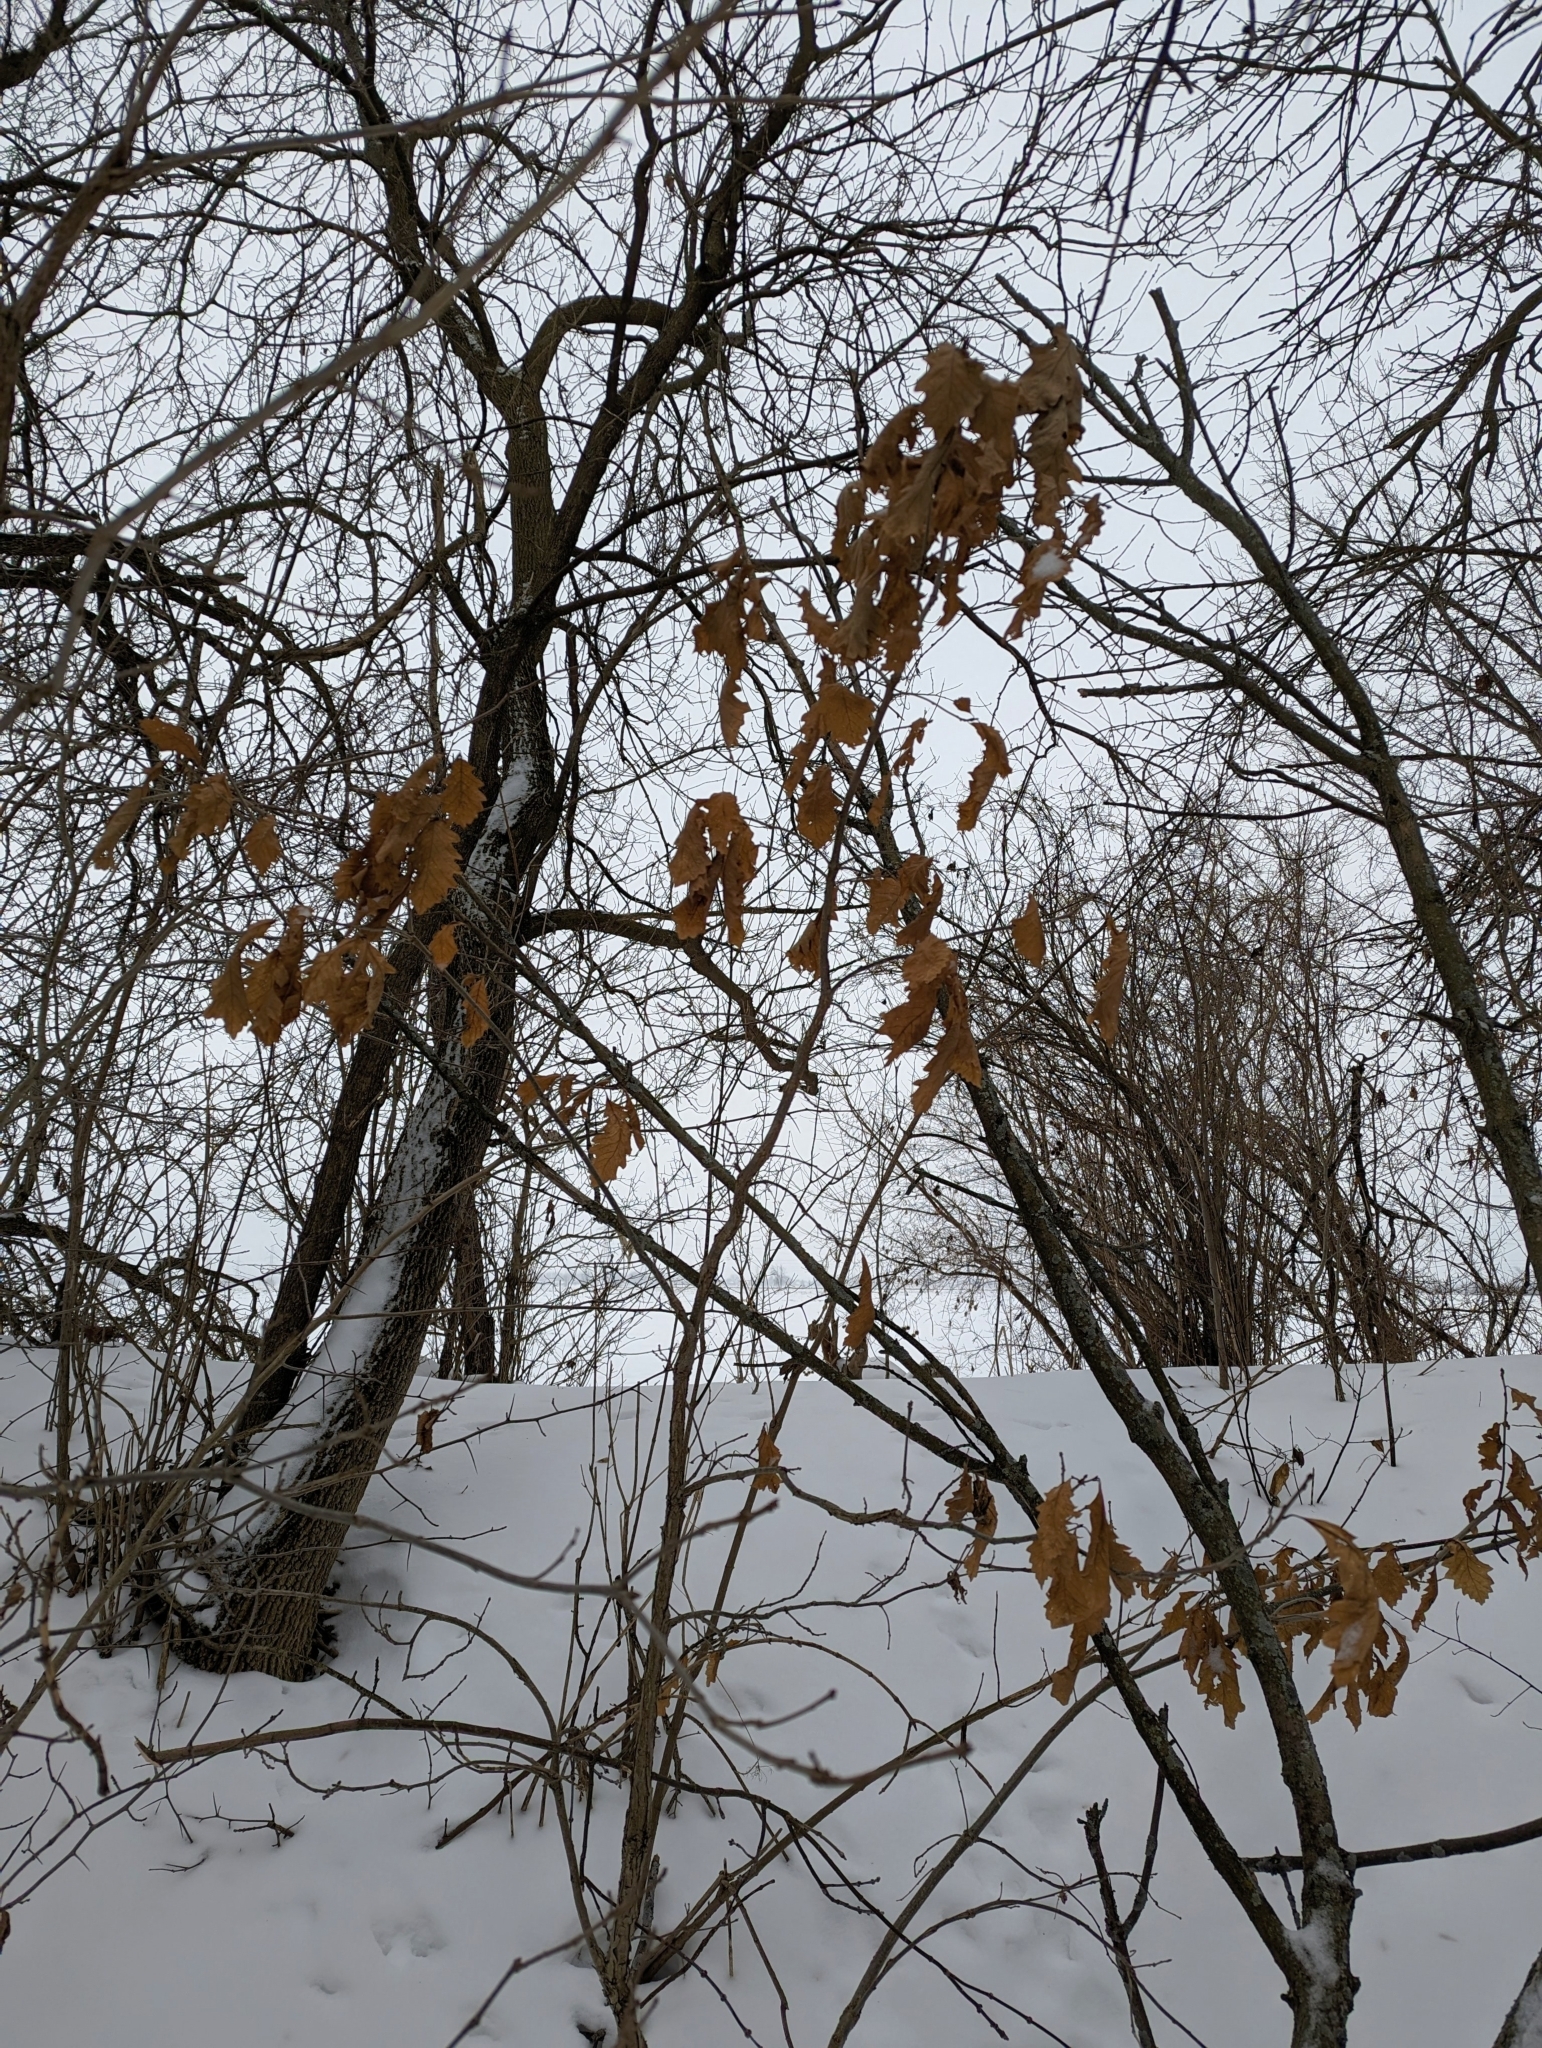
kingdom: Plantae
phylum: Tracheophyta
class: Magnoliopsida
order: Fagales
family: Fagaceae
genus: Quercus
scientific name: Quercus macrocarpa
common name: Bur oak
